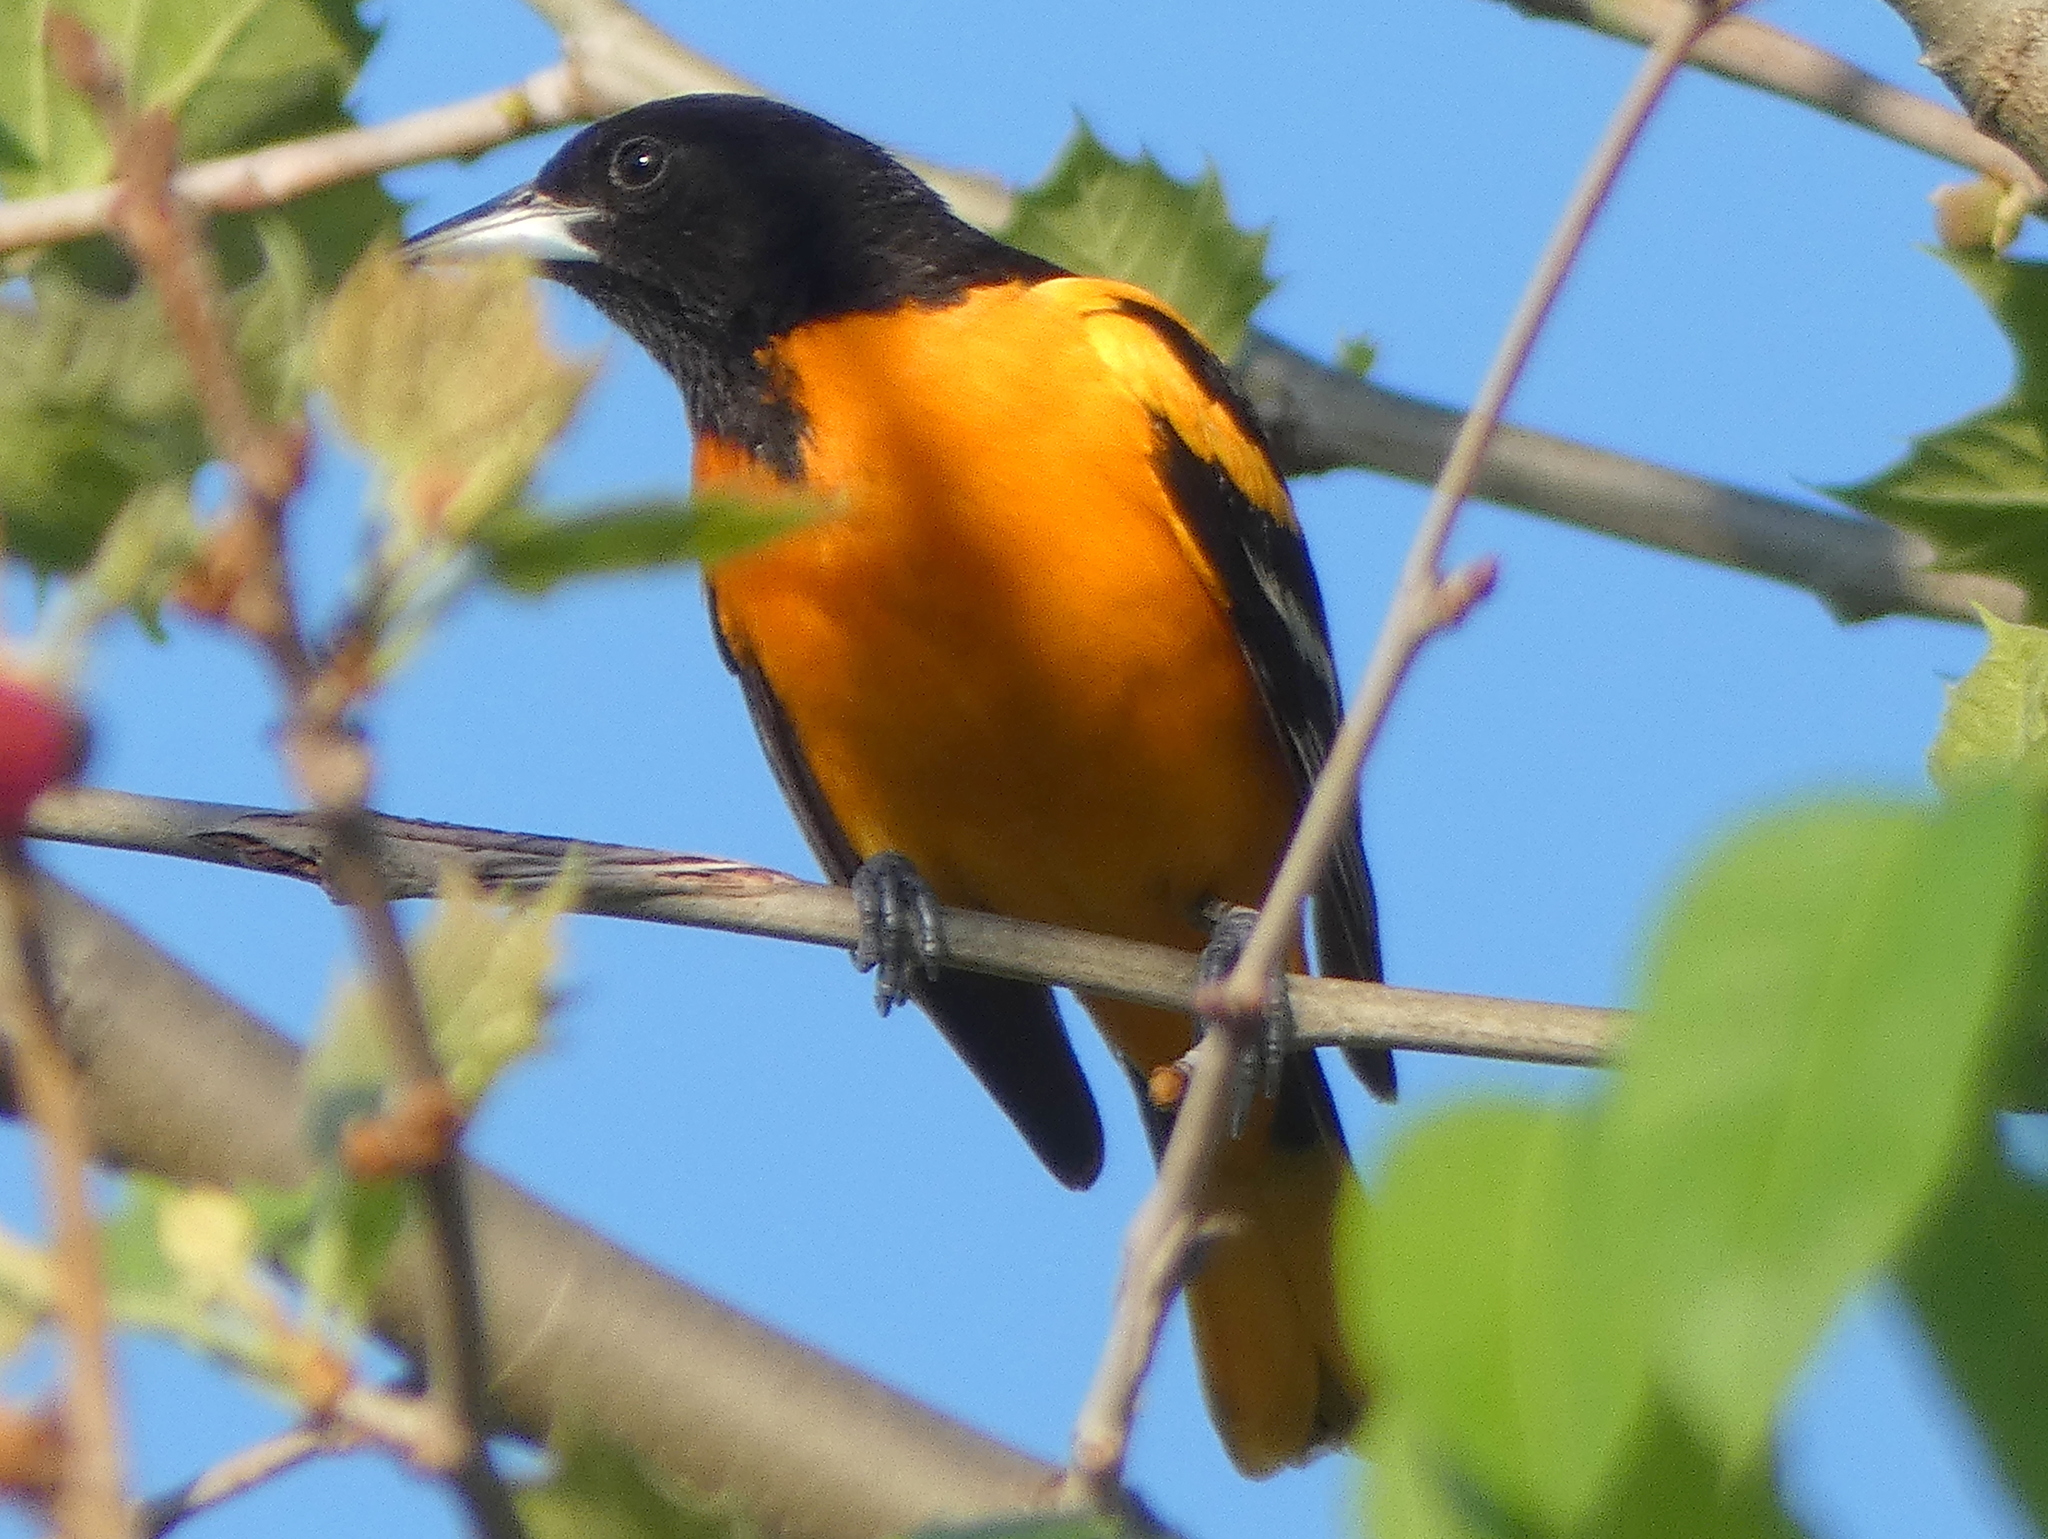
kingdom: Animalia
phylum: Chordata
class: Aves
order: Passeriformes
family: Icteridae
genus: Icterus
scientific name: Icterus galbula
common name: Baltimore oriole
